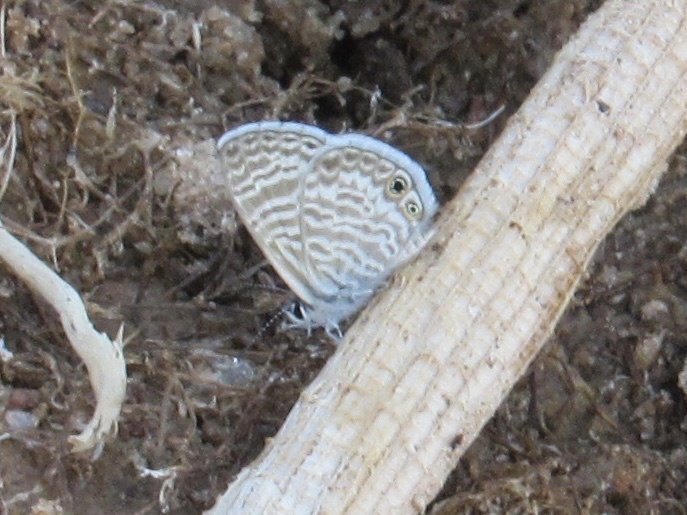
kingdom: Animalia
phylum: Arthropoda
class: Insecta
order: Lepidoptera
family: Lycaenidae
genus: Leptotes
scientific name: Leptotes marina
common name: Marine blue
